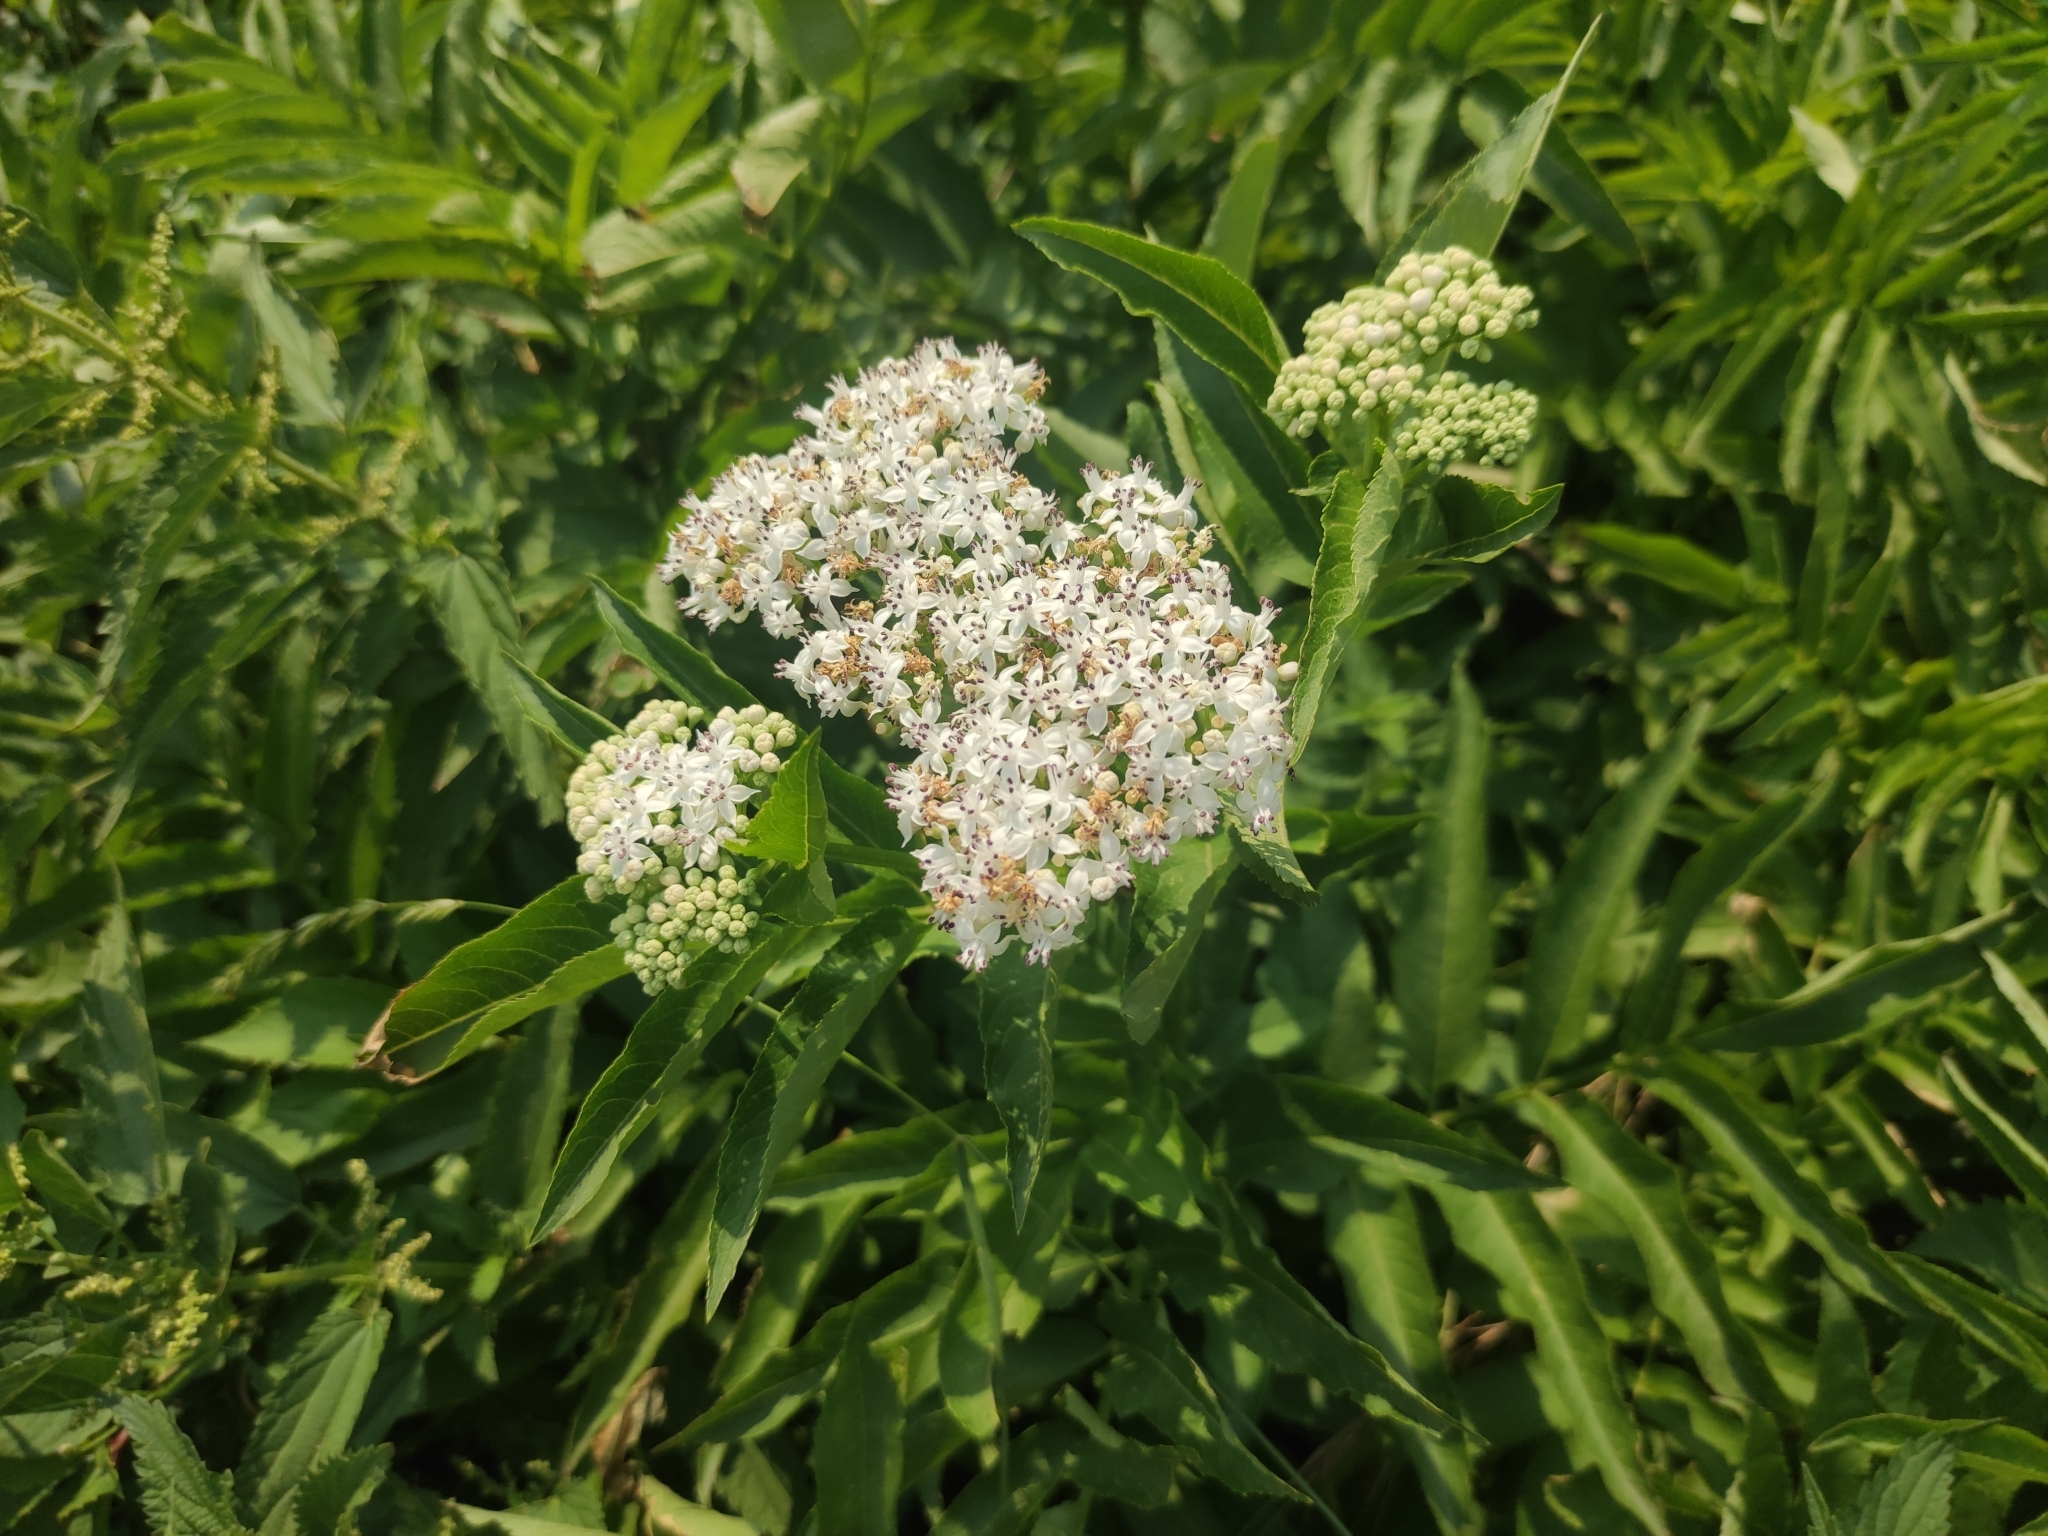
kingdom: Plantae
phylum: Tracheophyta
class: Magnoliopsida
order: Dipsacales
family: Viburnaceae
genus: Sambucus
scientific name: Sambucus ebulus
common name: Dwarf elder
